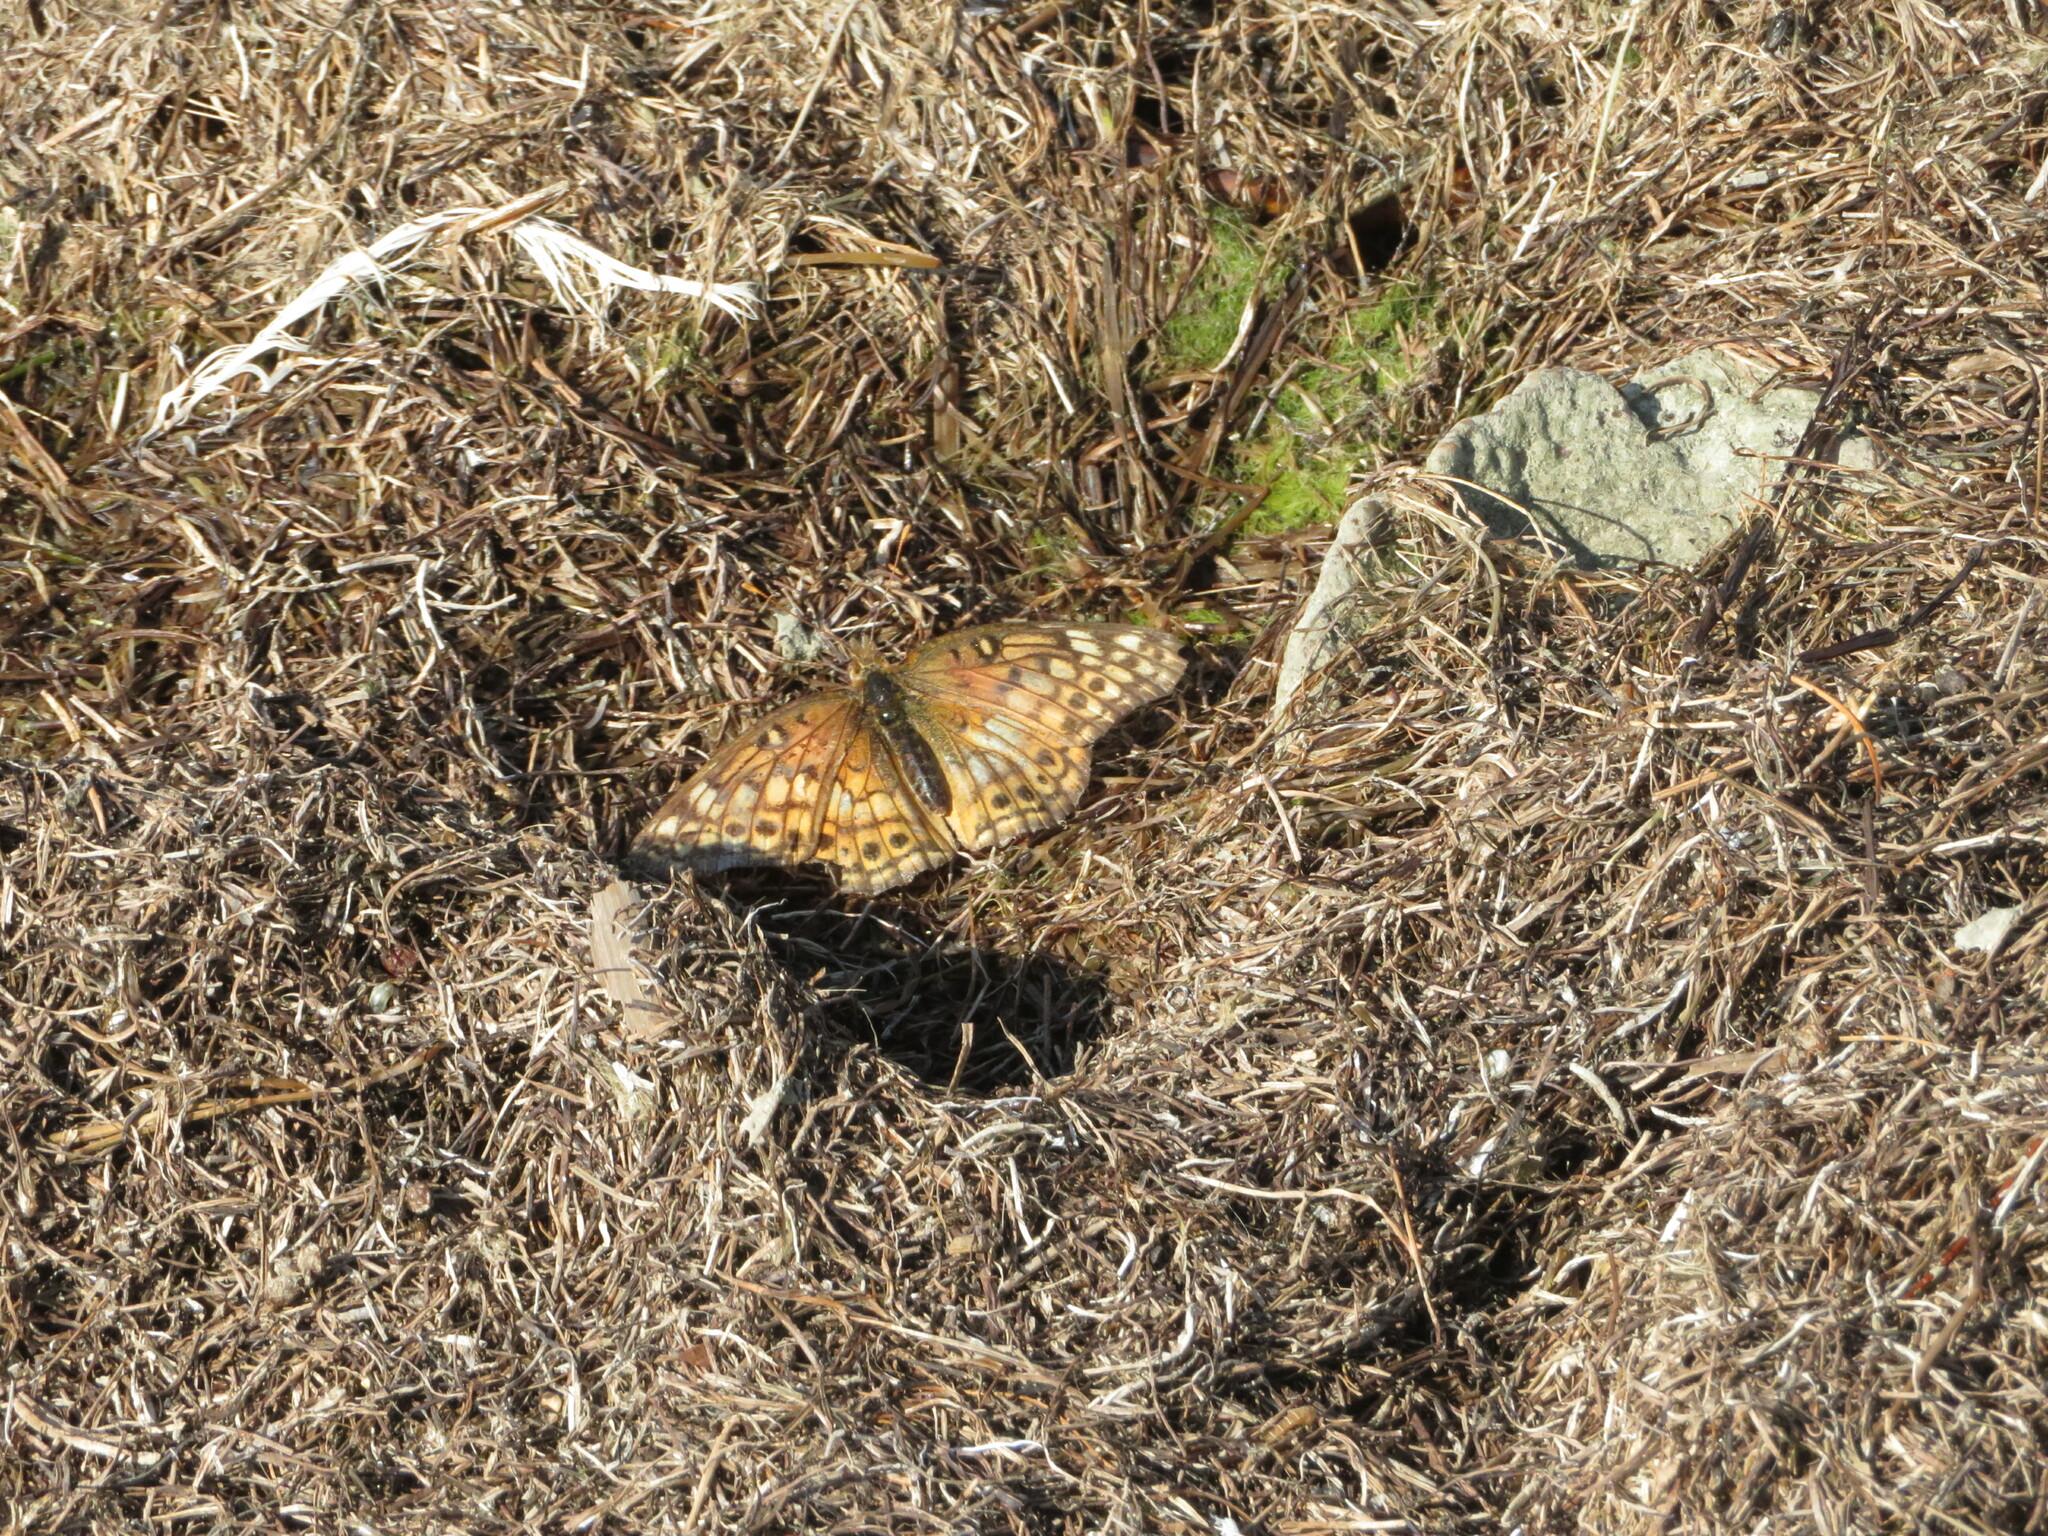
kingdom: Animalia
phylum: Arthropoda
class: Insecta
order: Lepidoptera
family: Nymphalidae
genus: Euptoieta
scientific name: Euptoieta claudia
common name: Variegated fritillary
